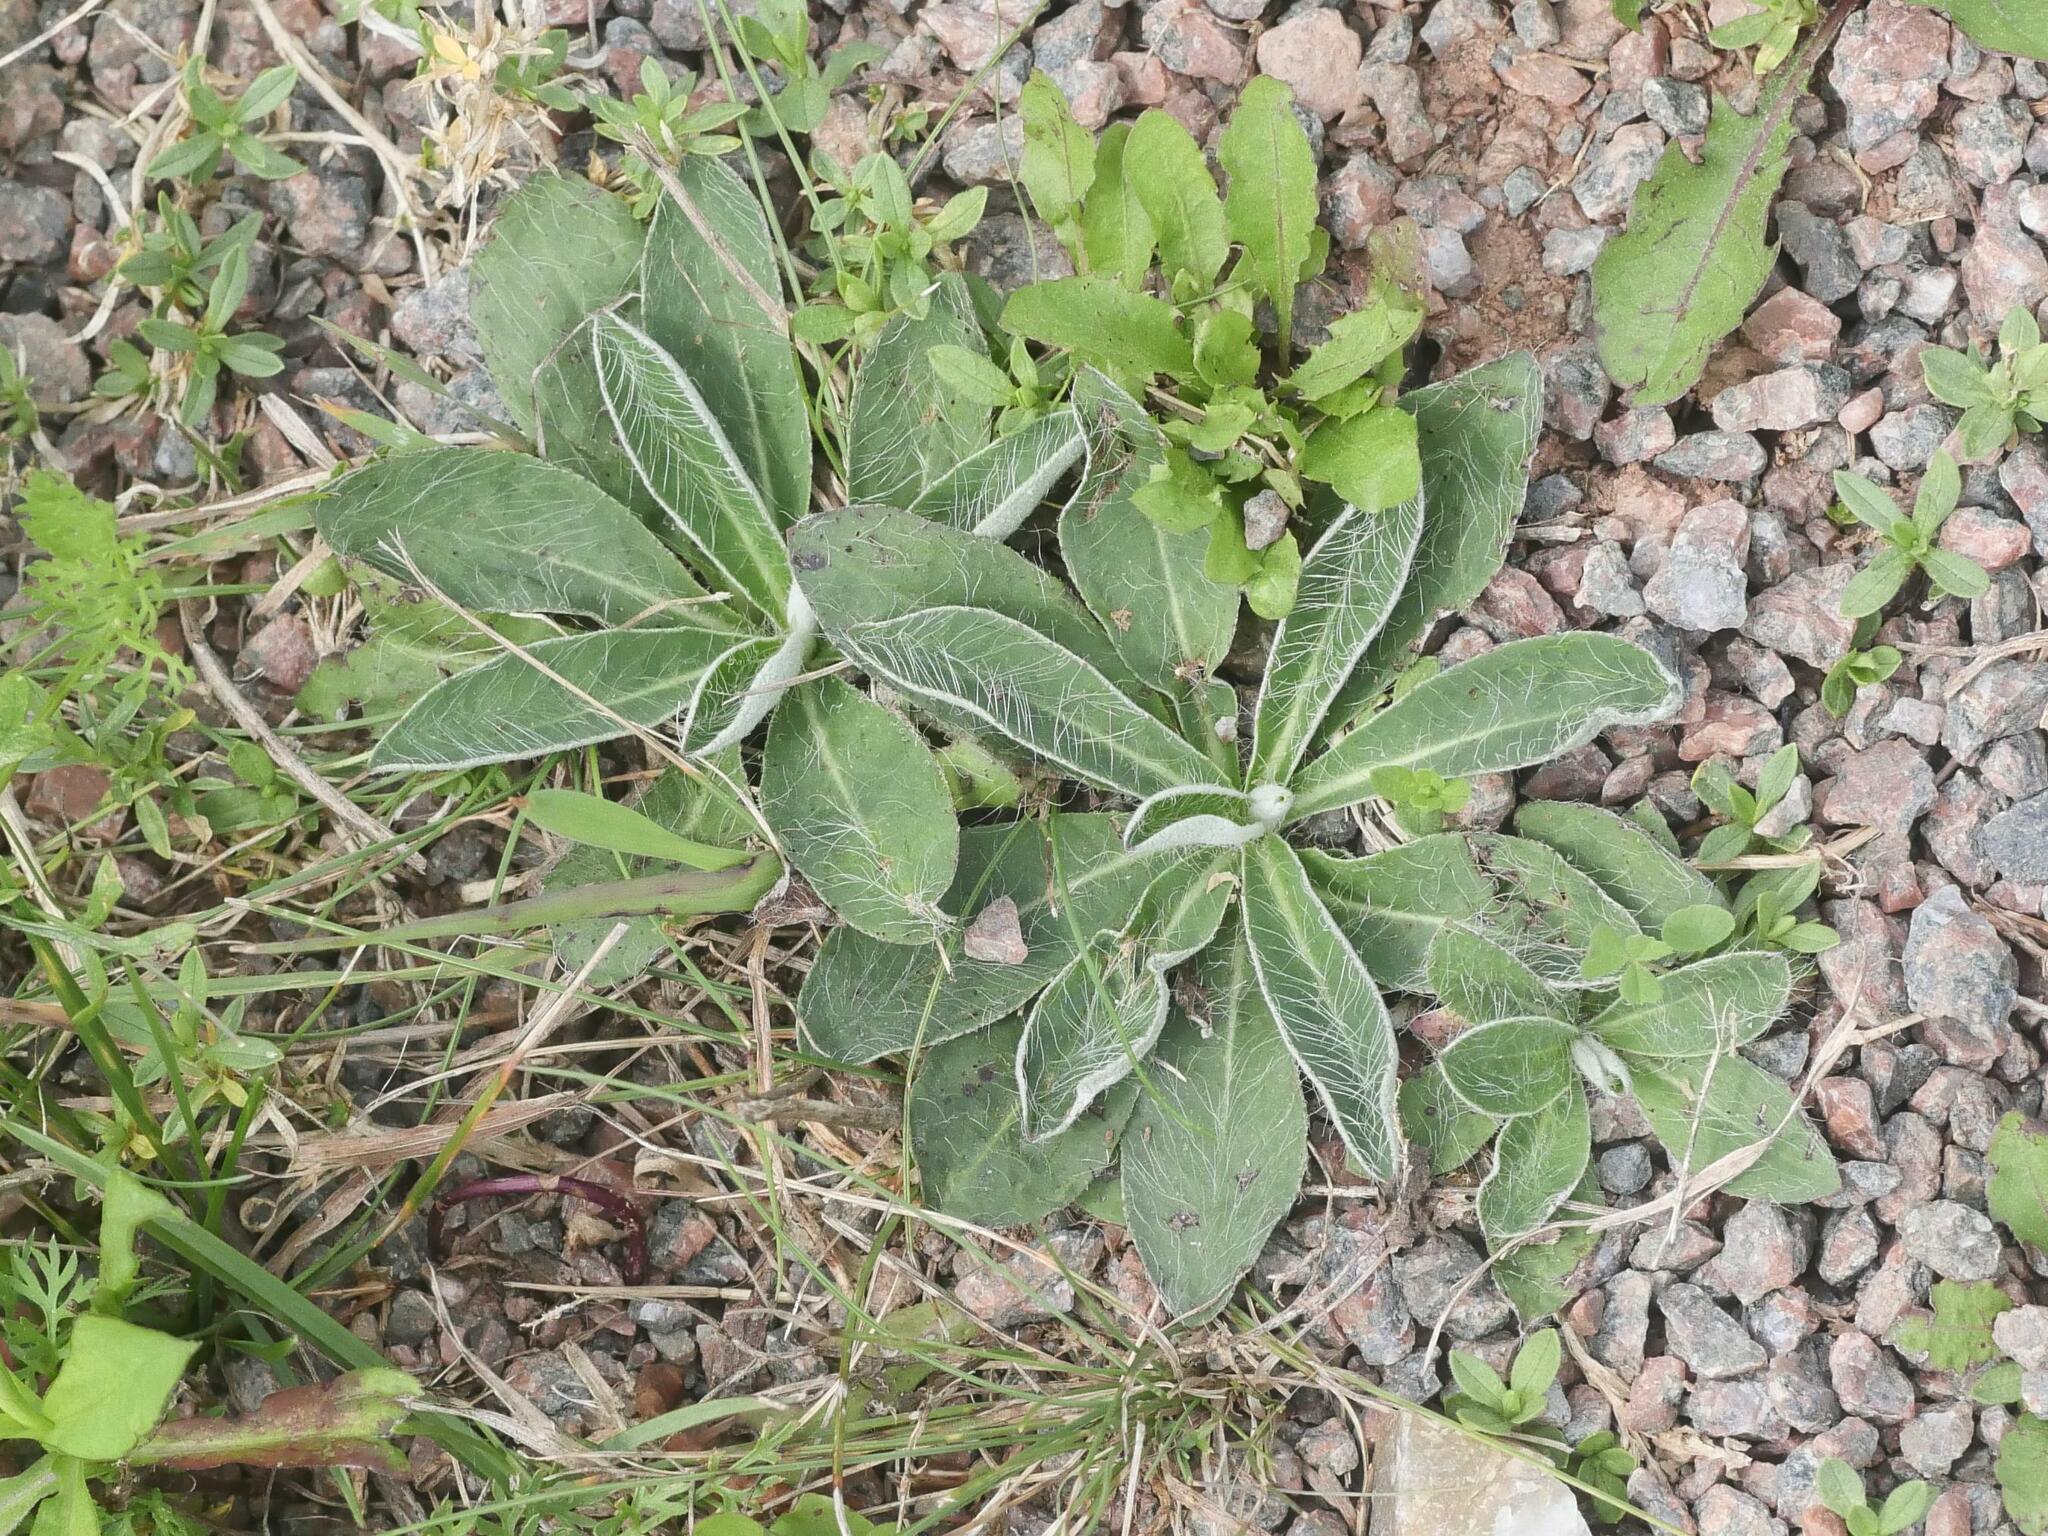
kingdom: Plantae
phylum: Tracheophyta
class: Magnoliopsida
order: Asterales
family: Asteraceae
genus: Pilosella
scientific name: Pilosella officinarum
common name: Mouse-ear hawkweed
